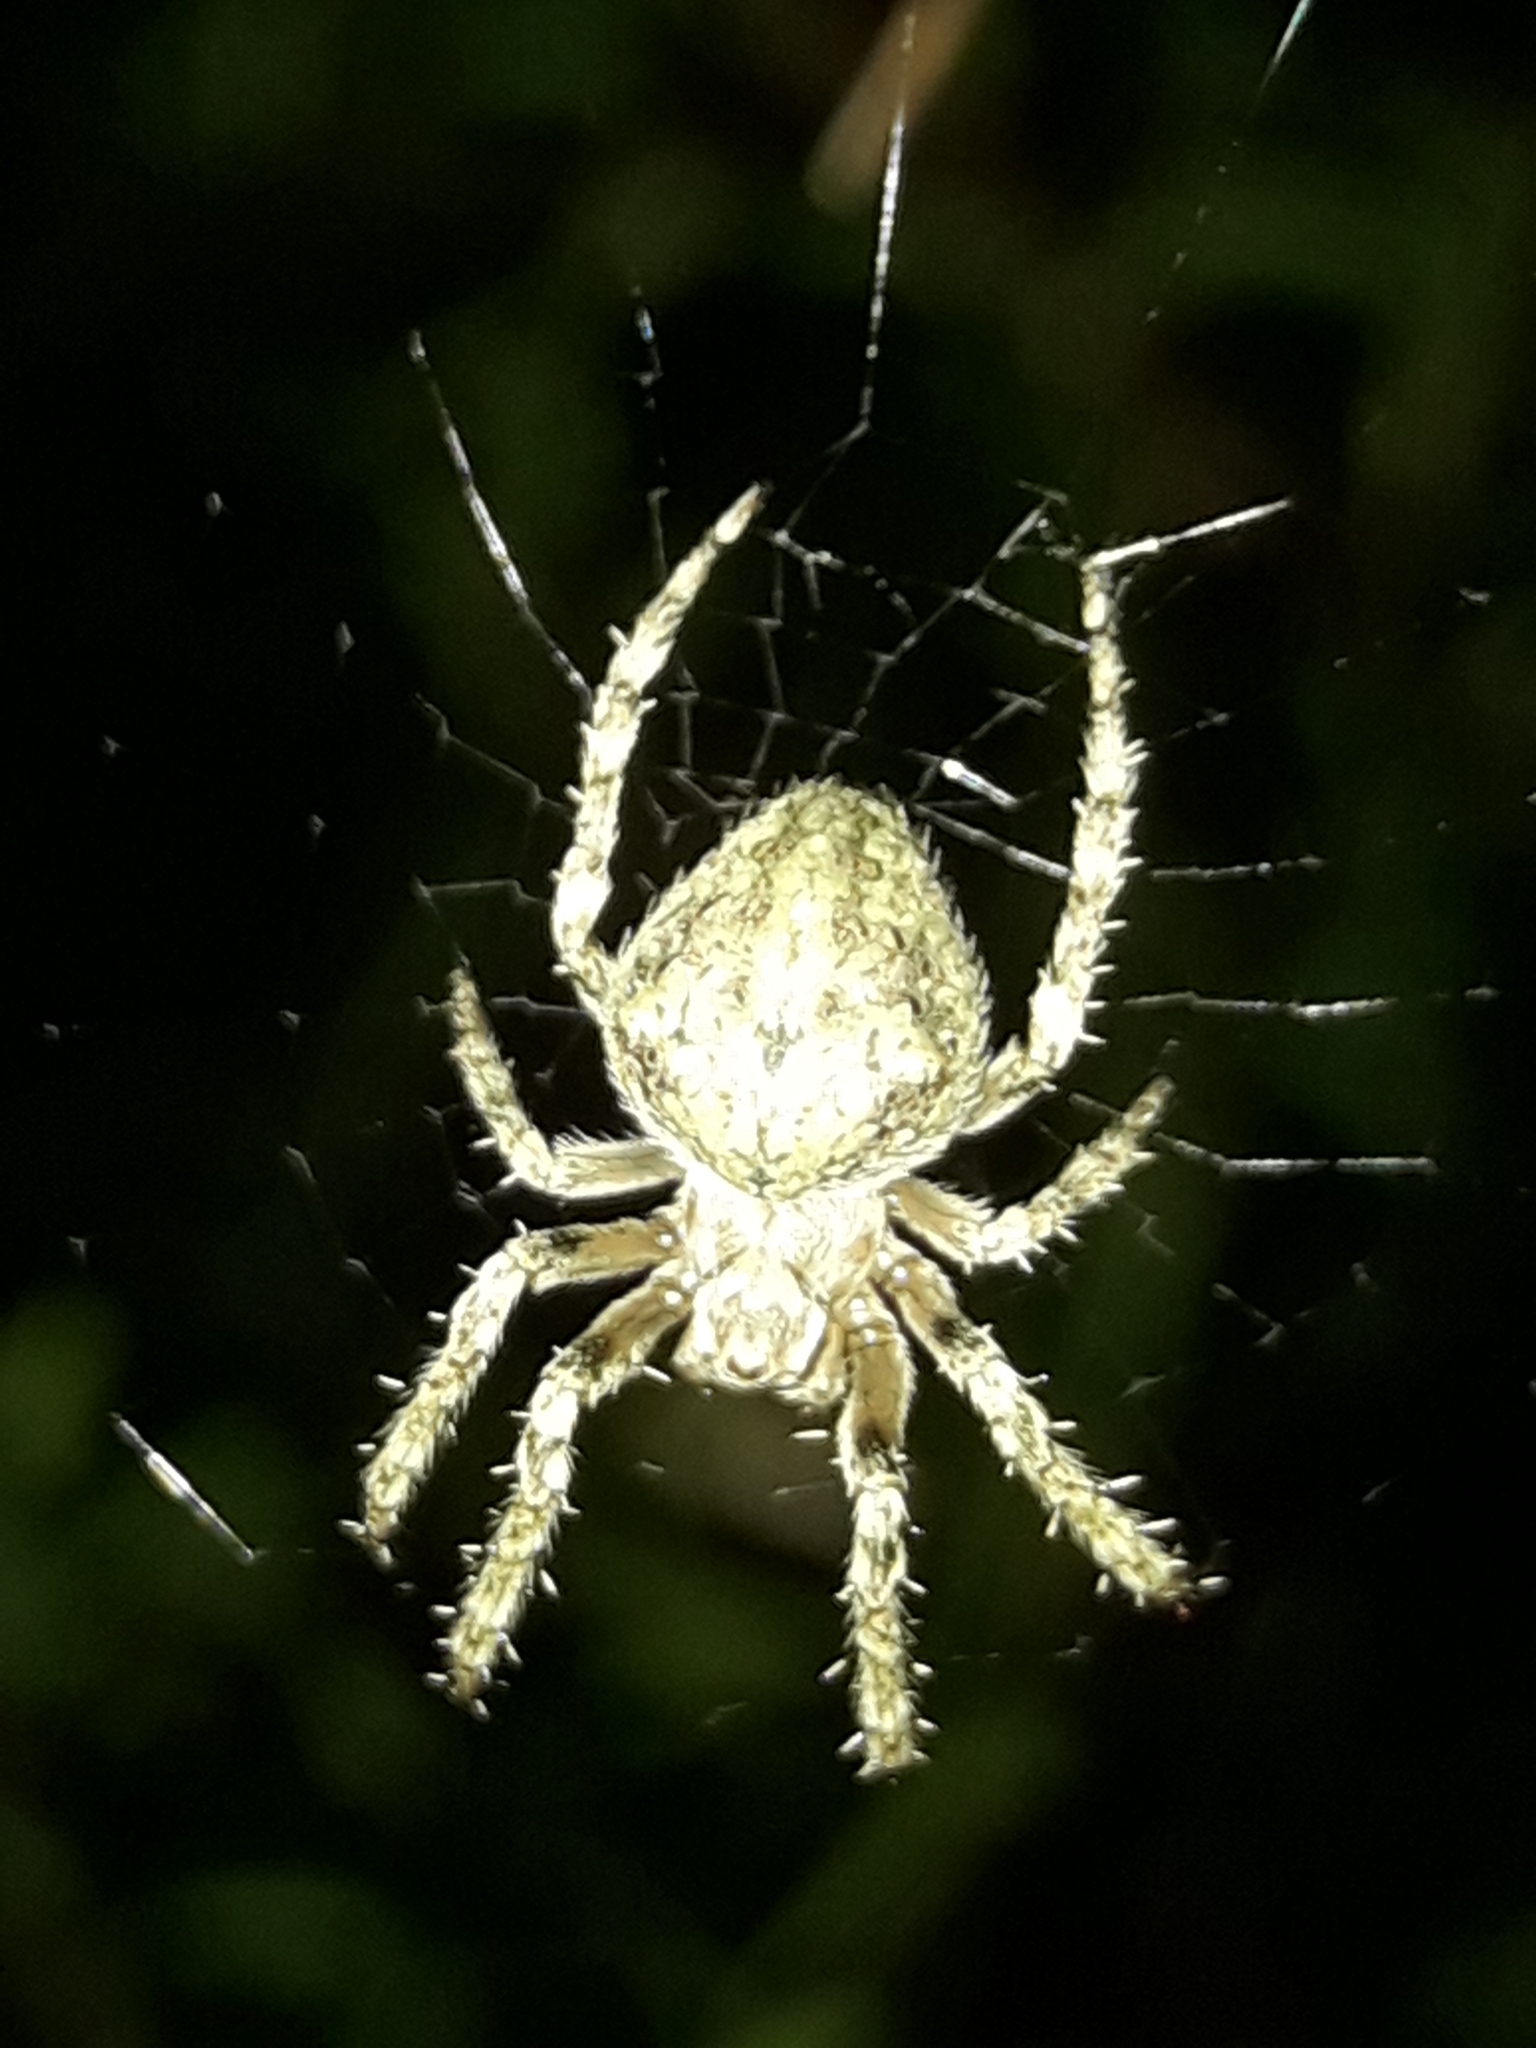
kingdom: Animalia
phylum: Arthropoda
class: Arachnida
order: Araneae
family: Araneidae
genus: Eriophora
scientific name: Eriophora pustulosa
